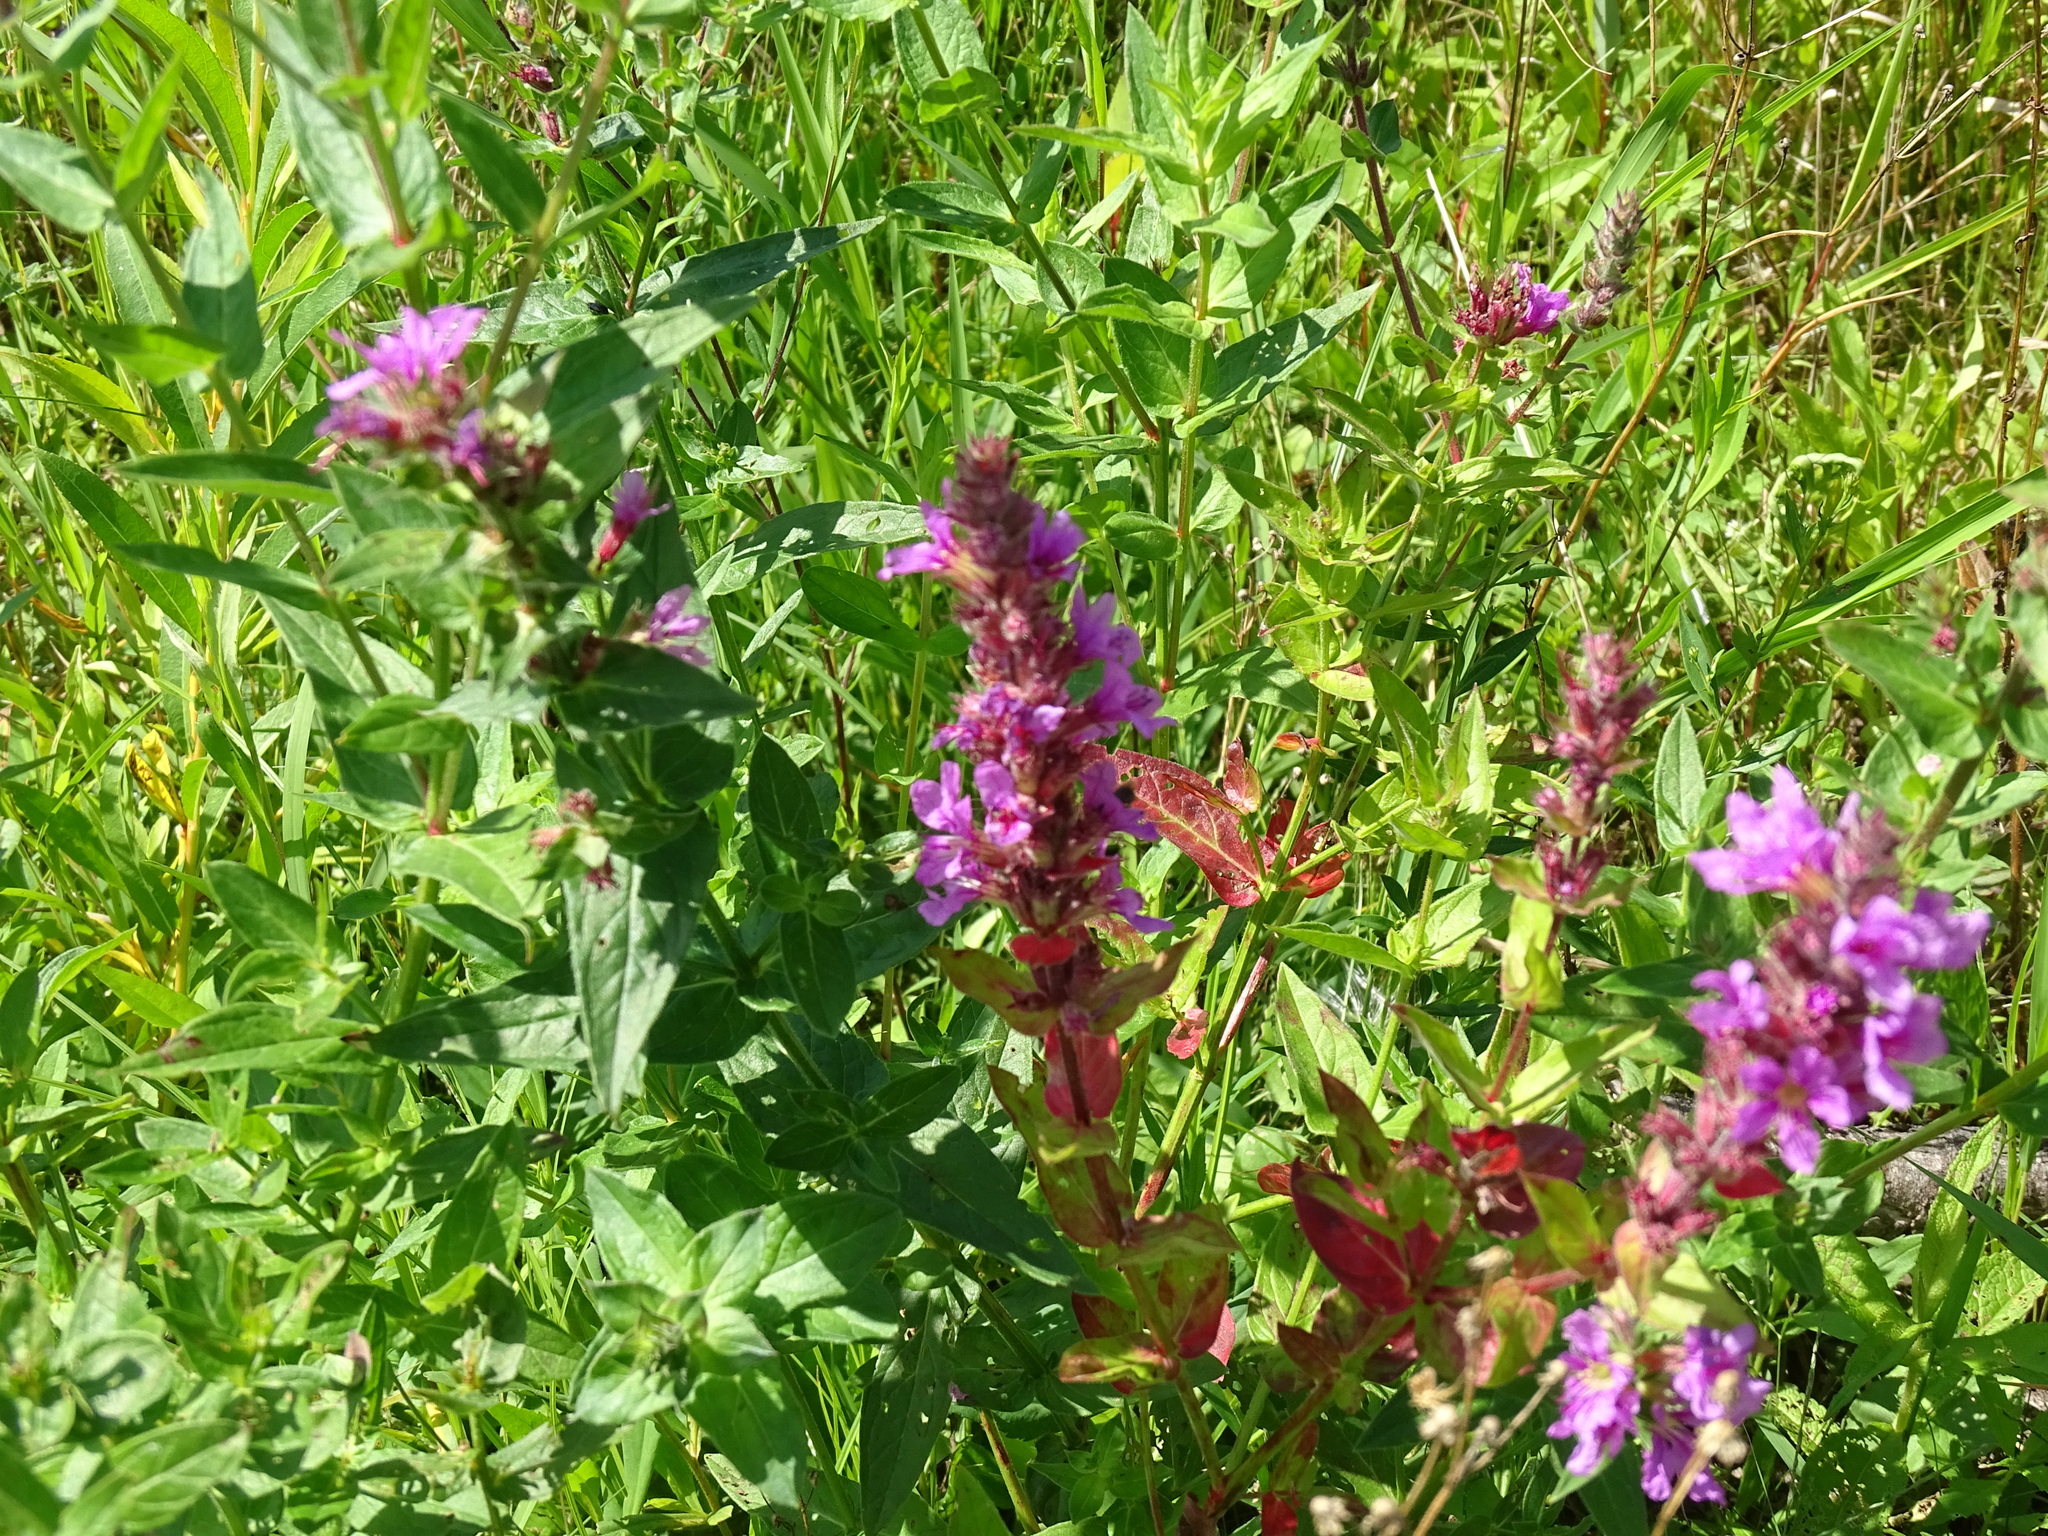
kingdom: Plantae
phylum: Tracheophyta
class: Magnoliopsida
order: Myrtales
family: Lythraceae
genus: Lythrum
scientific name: Lythrum salicaria
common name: Purple loosestrife
